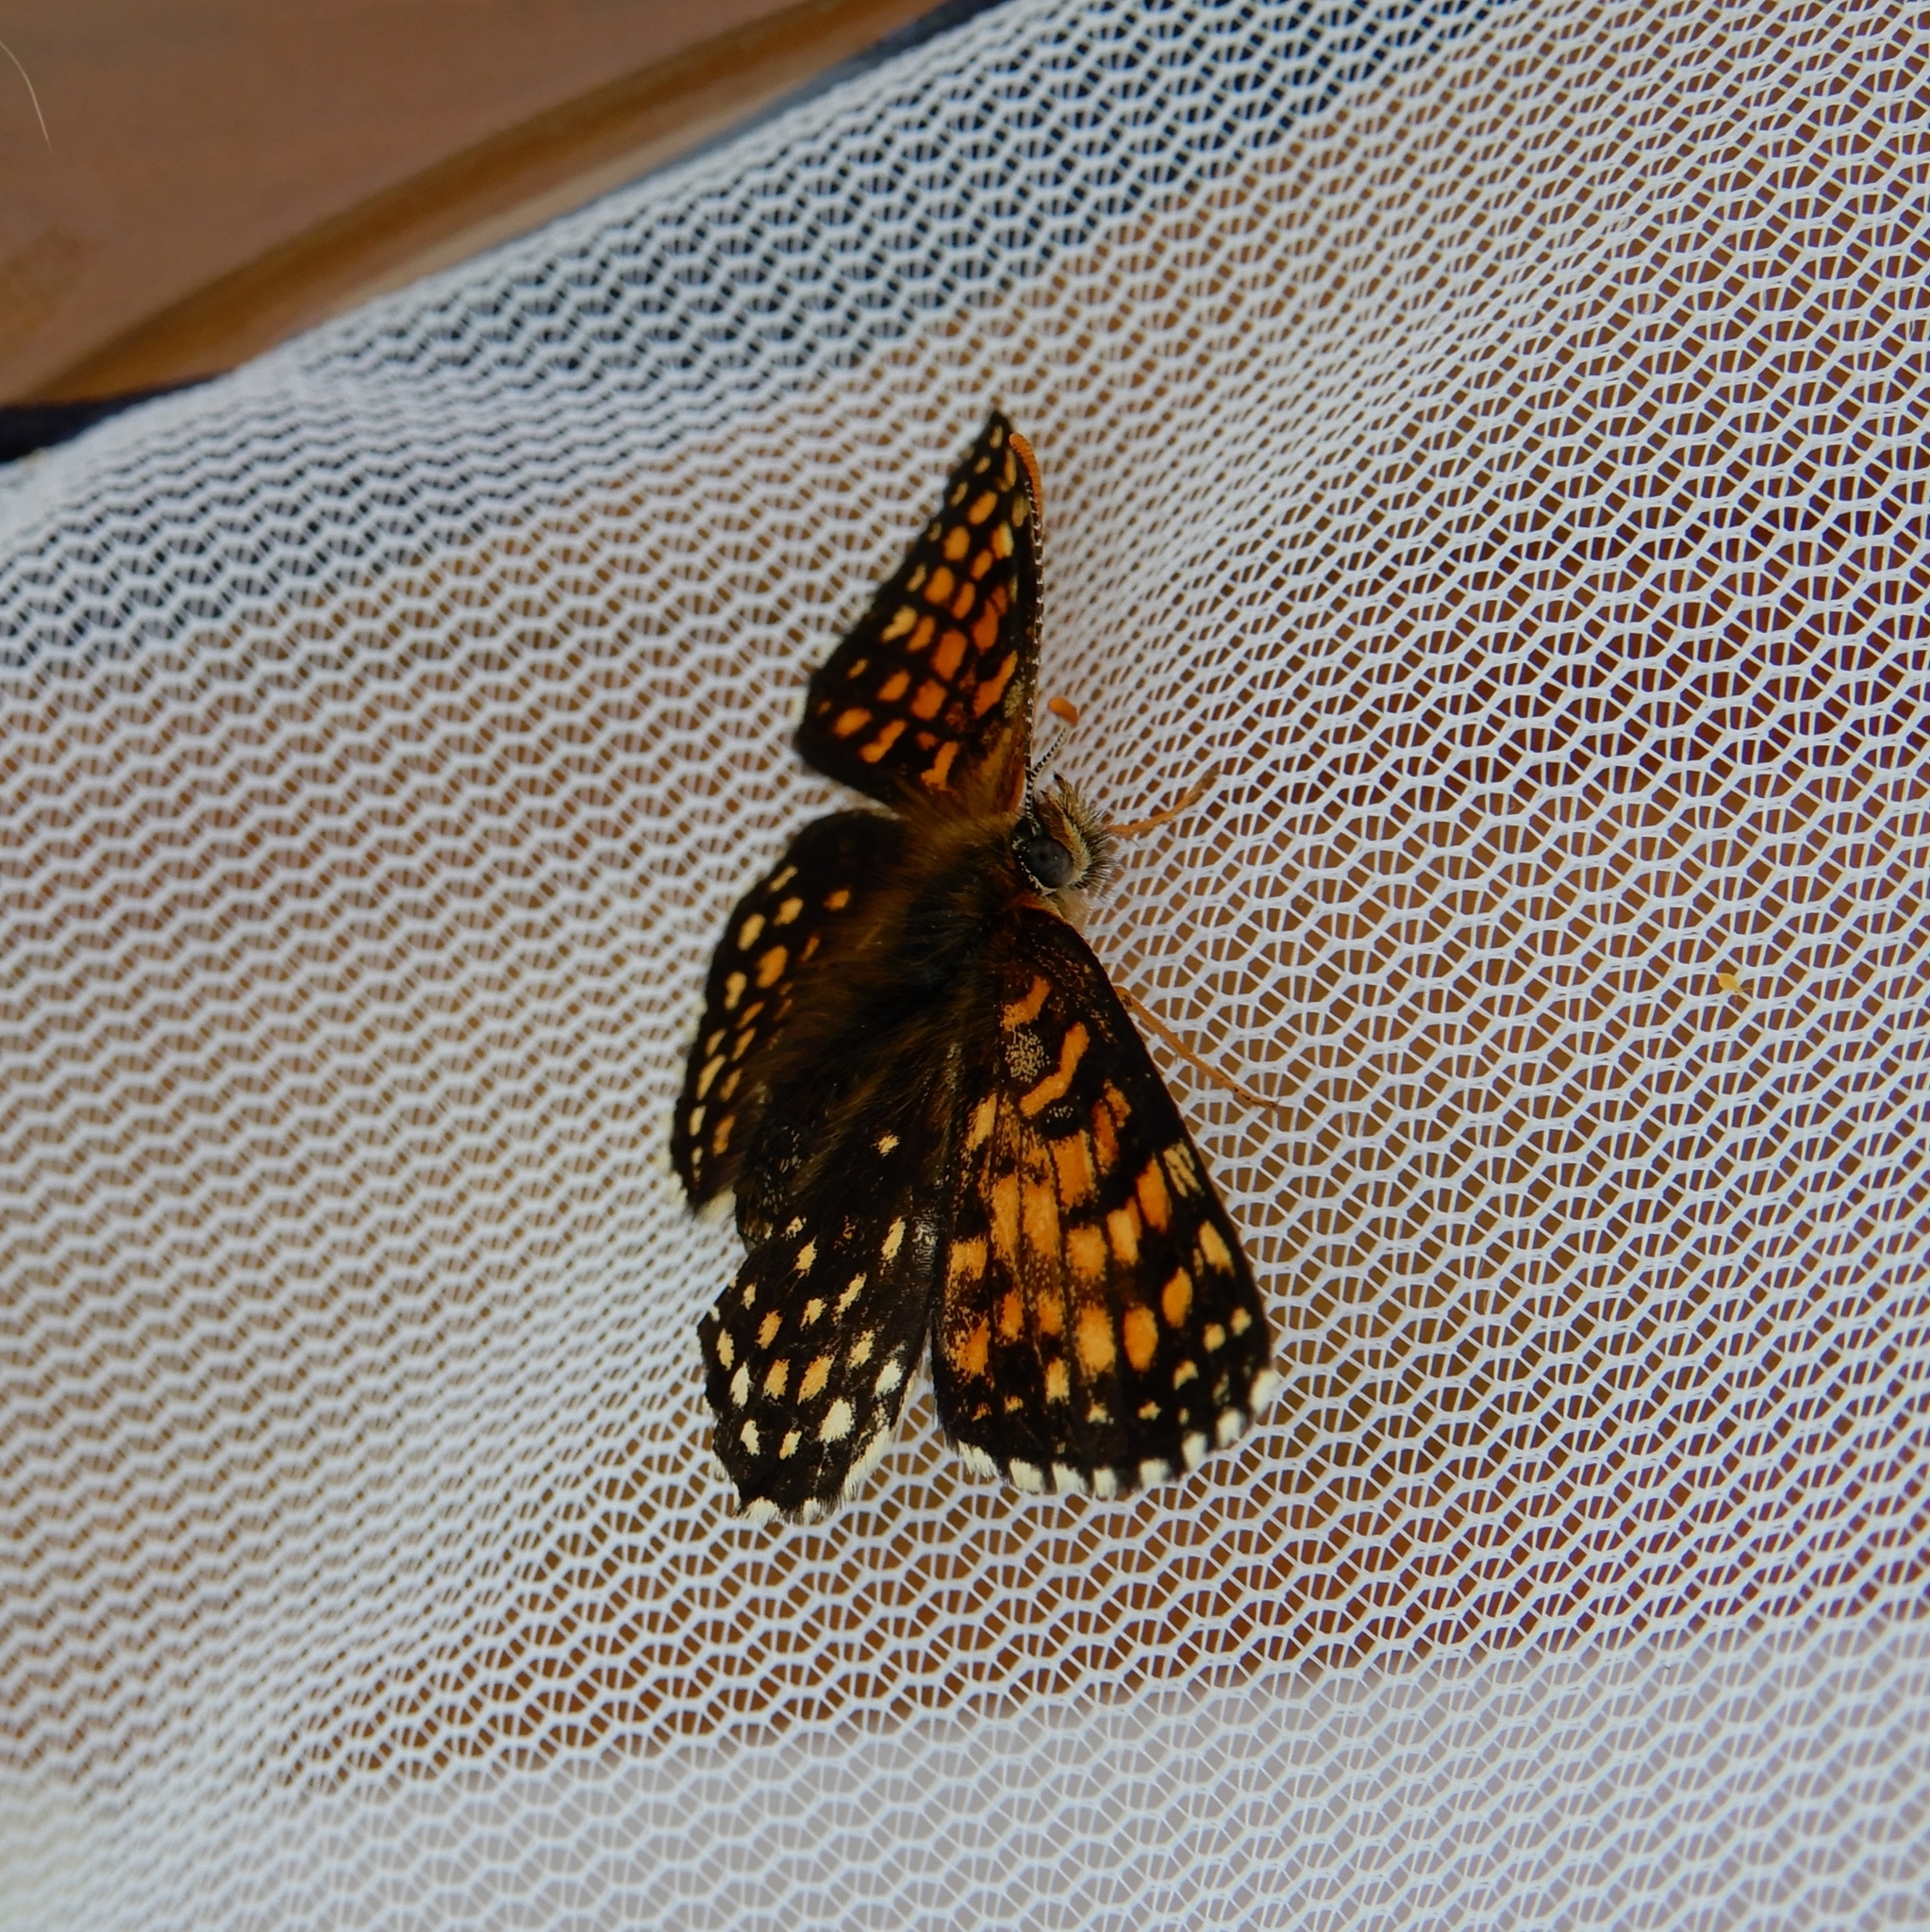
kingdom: Animalia
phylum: Arthropoda
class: Insecta
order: Lepidoptera
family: Nymphalidae
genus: Melitaea
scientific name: Melitaea diamina
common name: False heath fritillary
